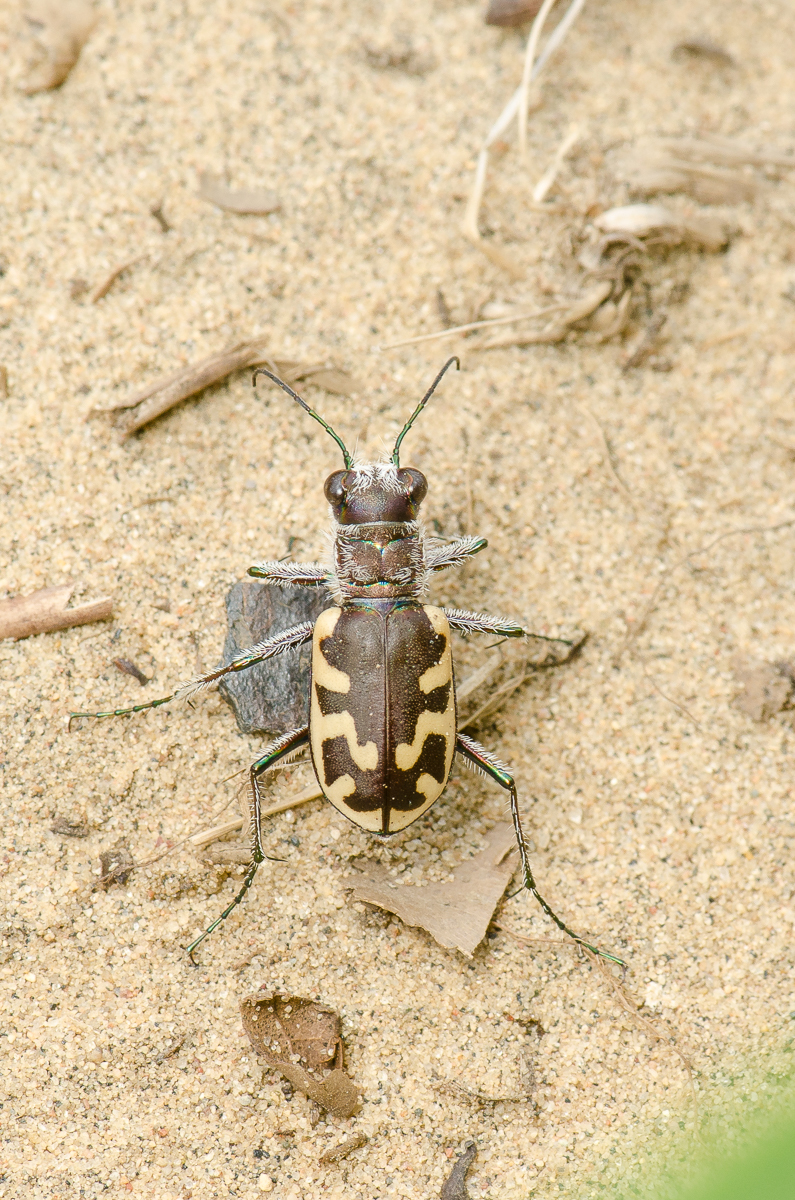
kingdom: Animalia
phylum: Arthropoda
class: Insecta
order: Coleoptera
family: Carabidae
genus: Cicindela
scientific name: Cicindela formosa
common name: Big sand tiger beetle
